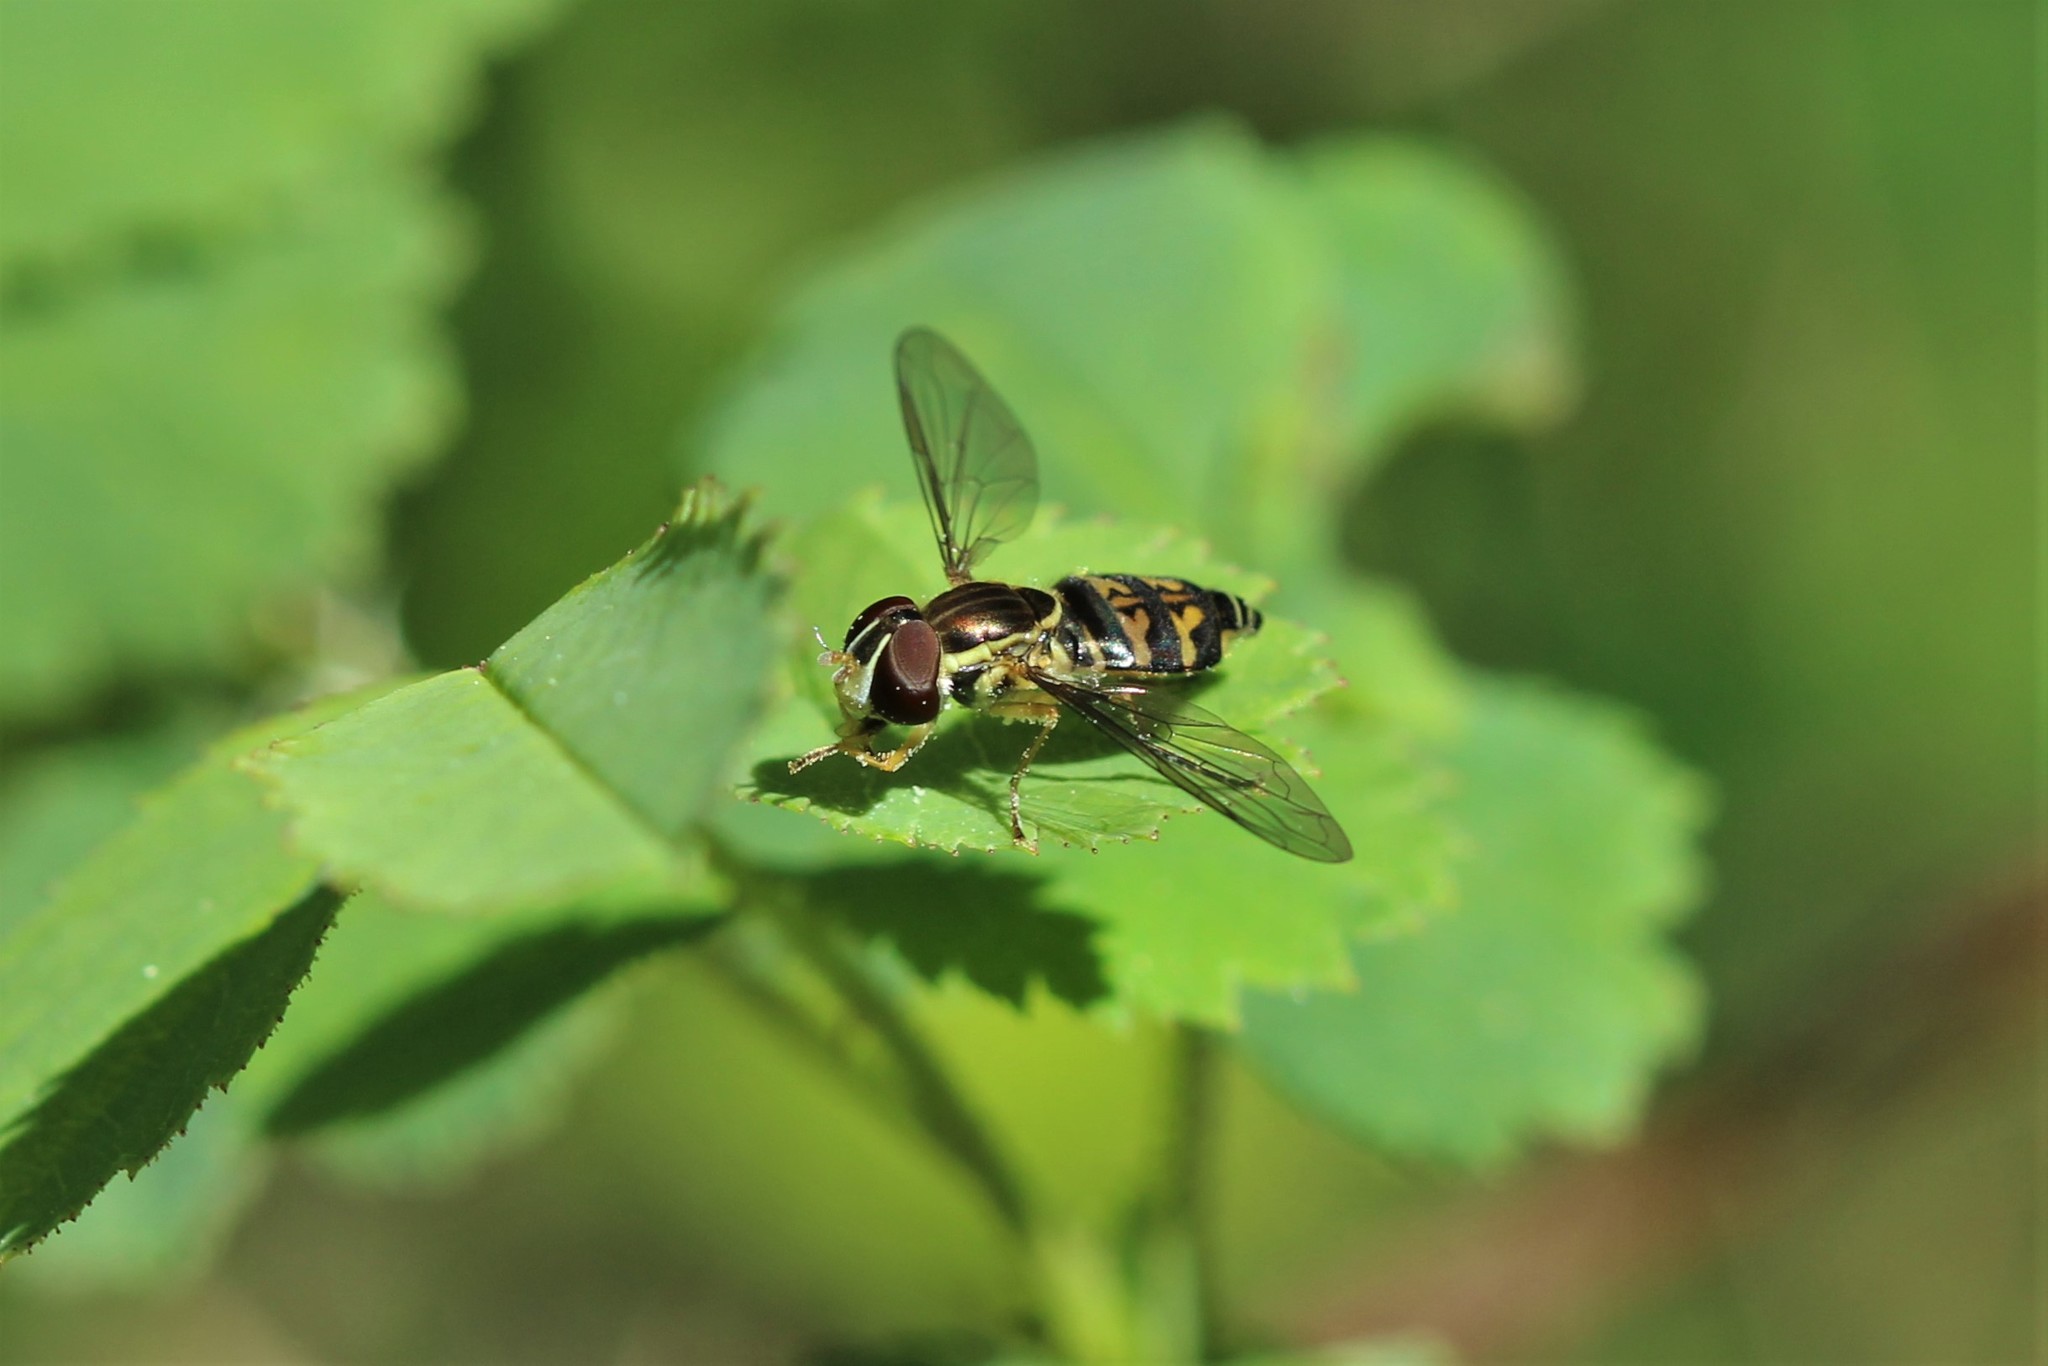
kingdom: Animalia
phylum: Arthropoda
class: Insecta
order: Diptera
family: Syrphidae
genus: Toxomerus
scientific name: Toxomerus occidentalis
